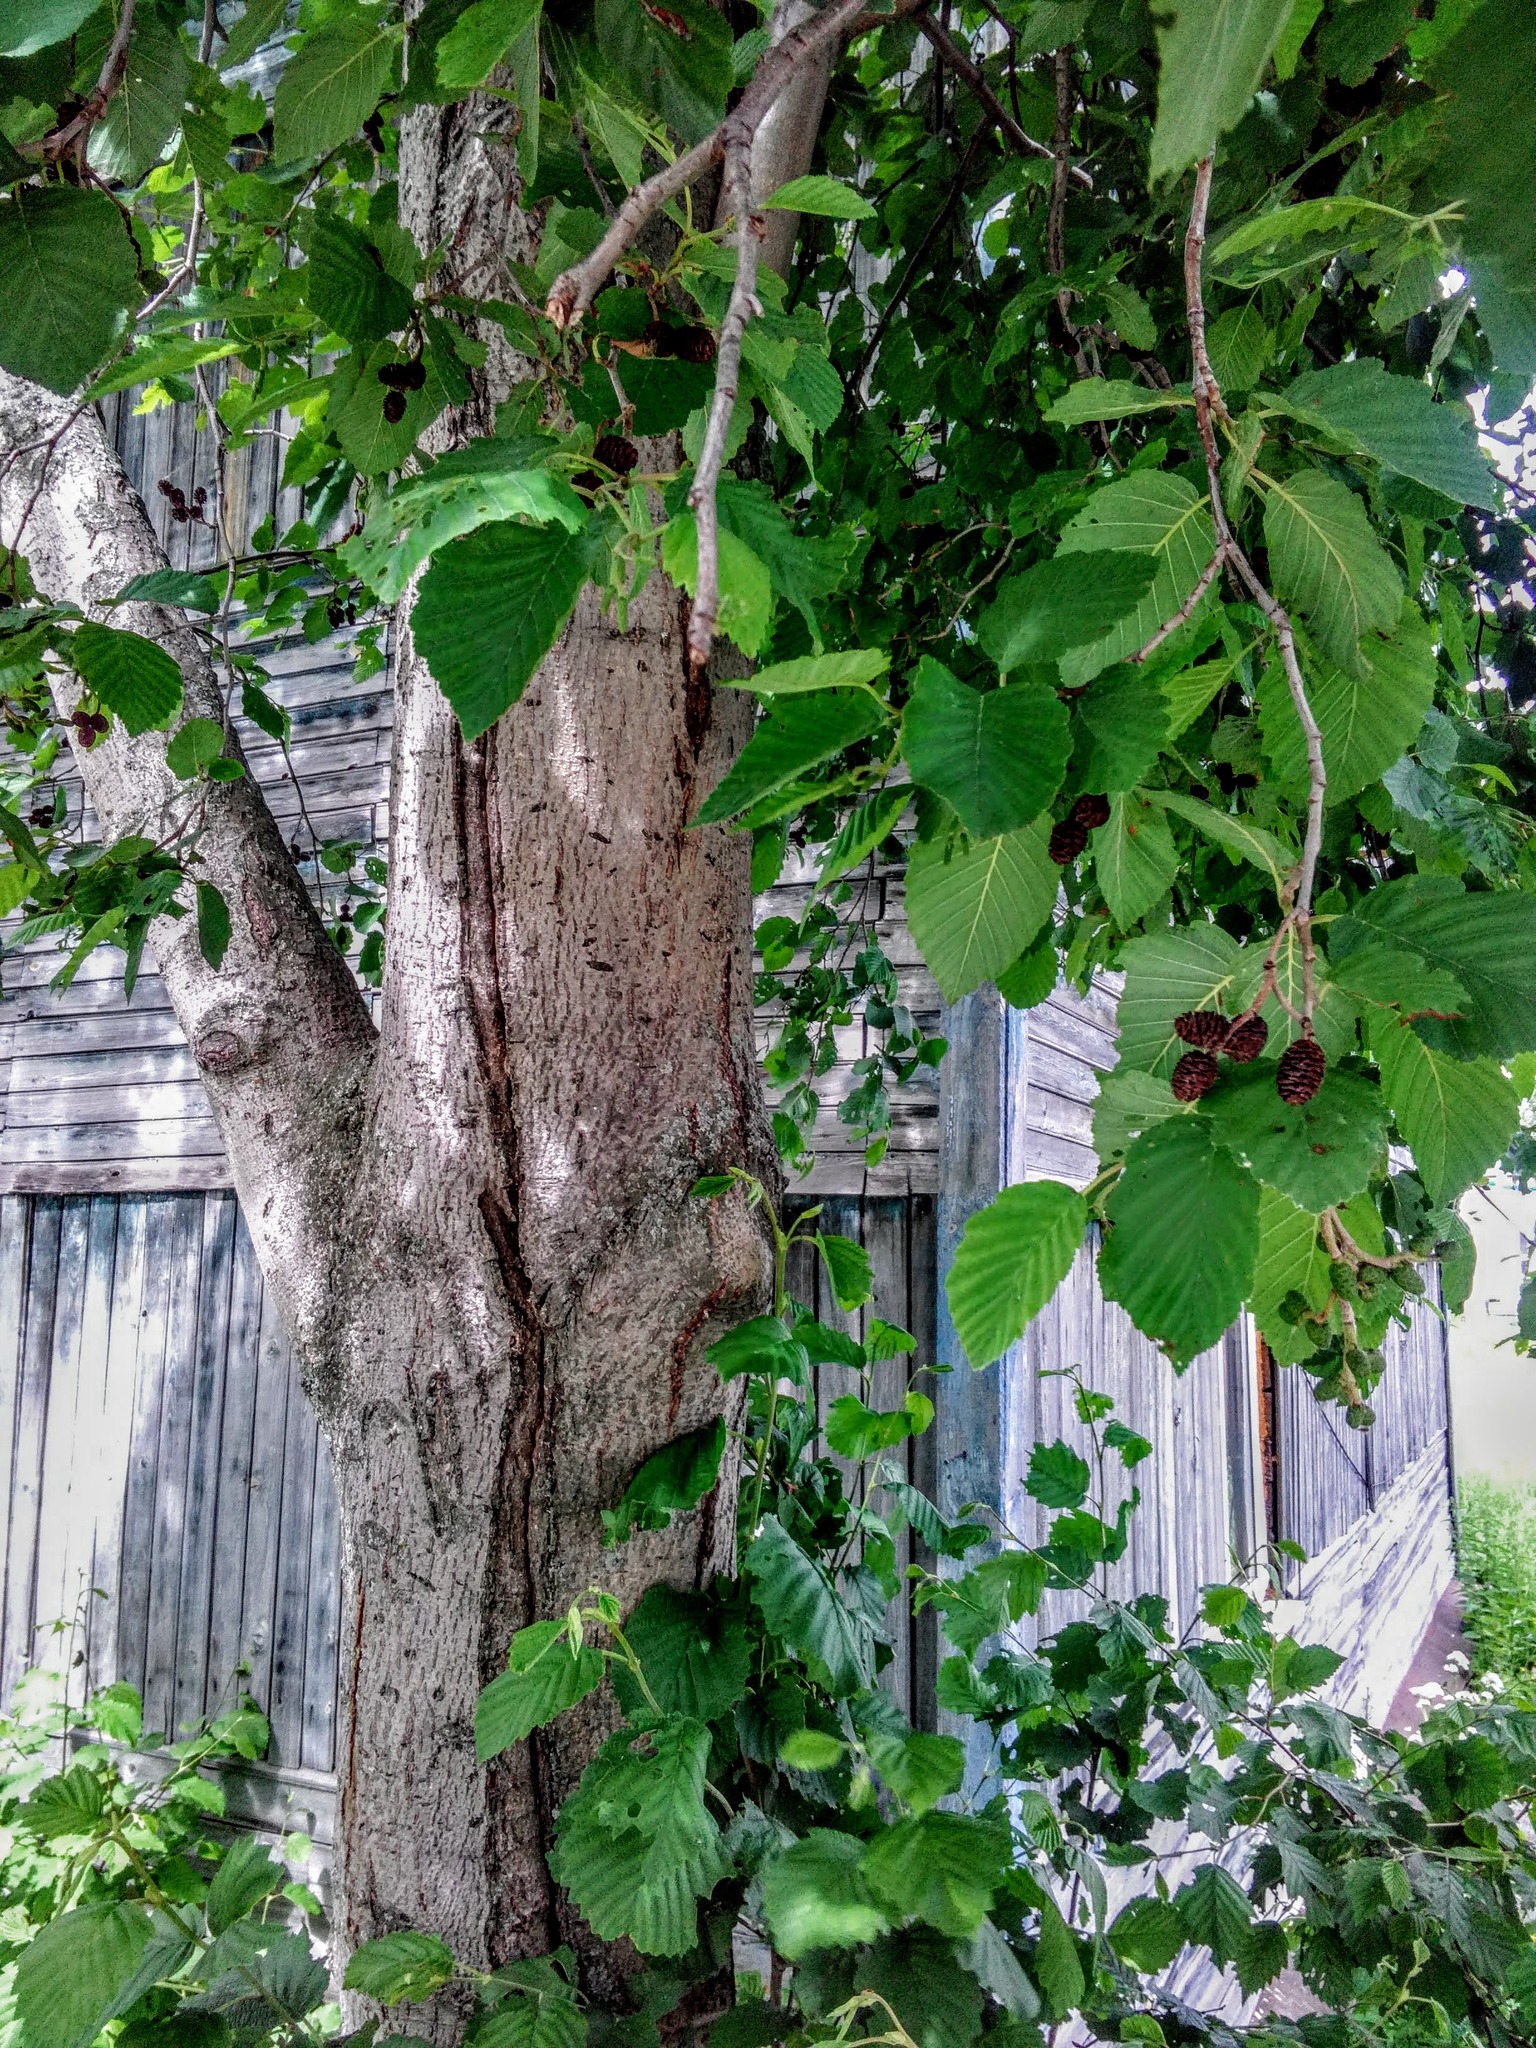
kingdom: Plantae
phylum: Tracheophyta
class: Magnoliopsida
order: Fagales
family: Betulaceae
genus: Alnus
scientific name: Alnus incana
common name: Grey alder
